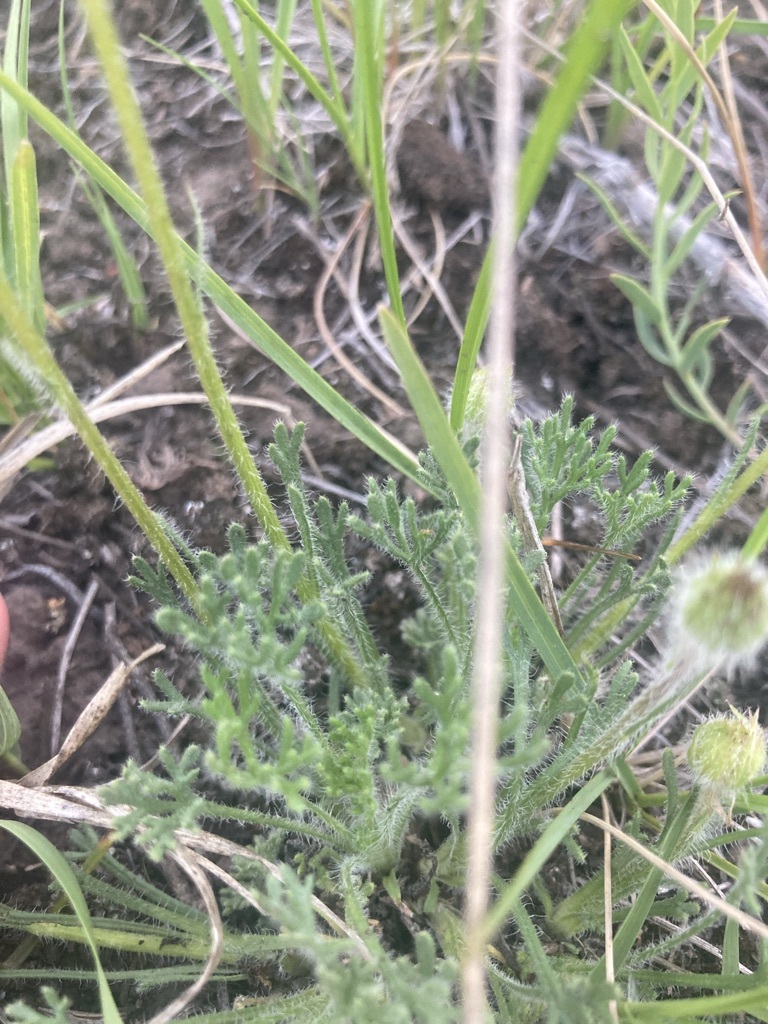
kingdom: Plantae
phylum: Tracheophyta
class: Magnoliopsida
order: Asterales
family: Asteraceae
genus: Erigeron
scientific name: Erigeron compositus
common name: Dwarf mountain fleabane
